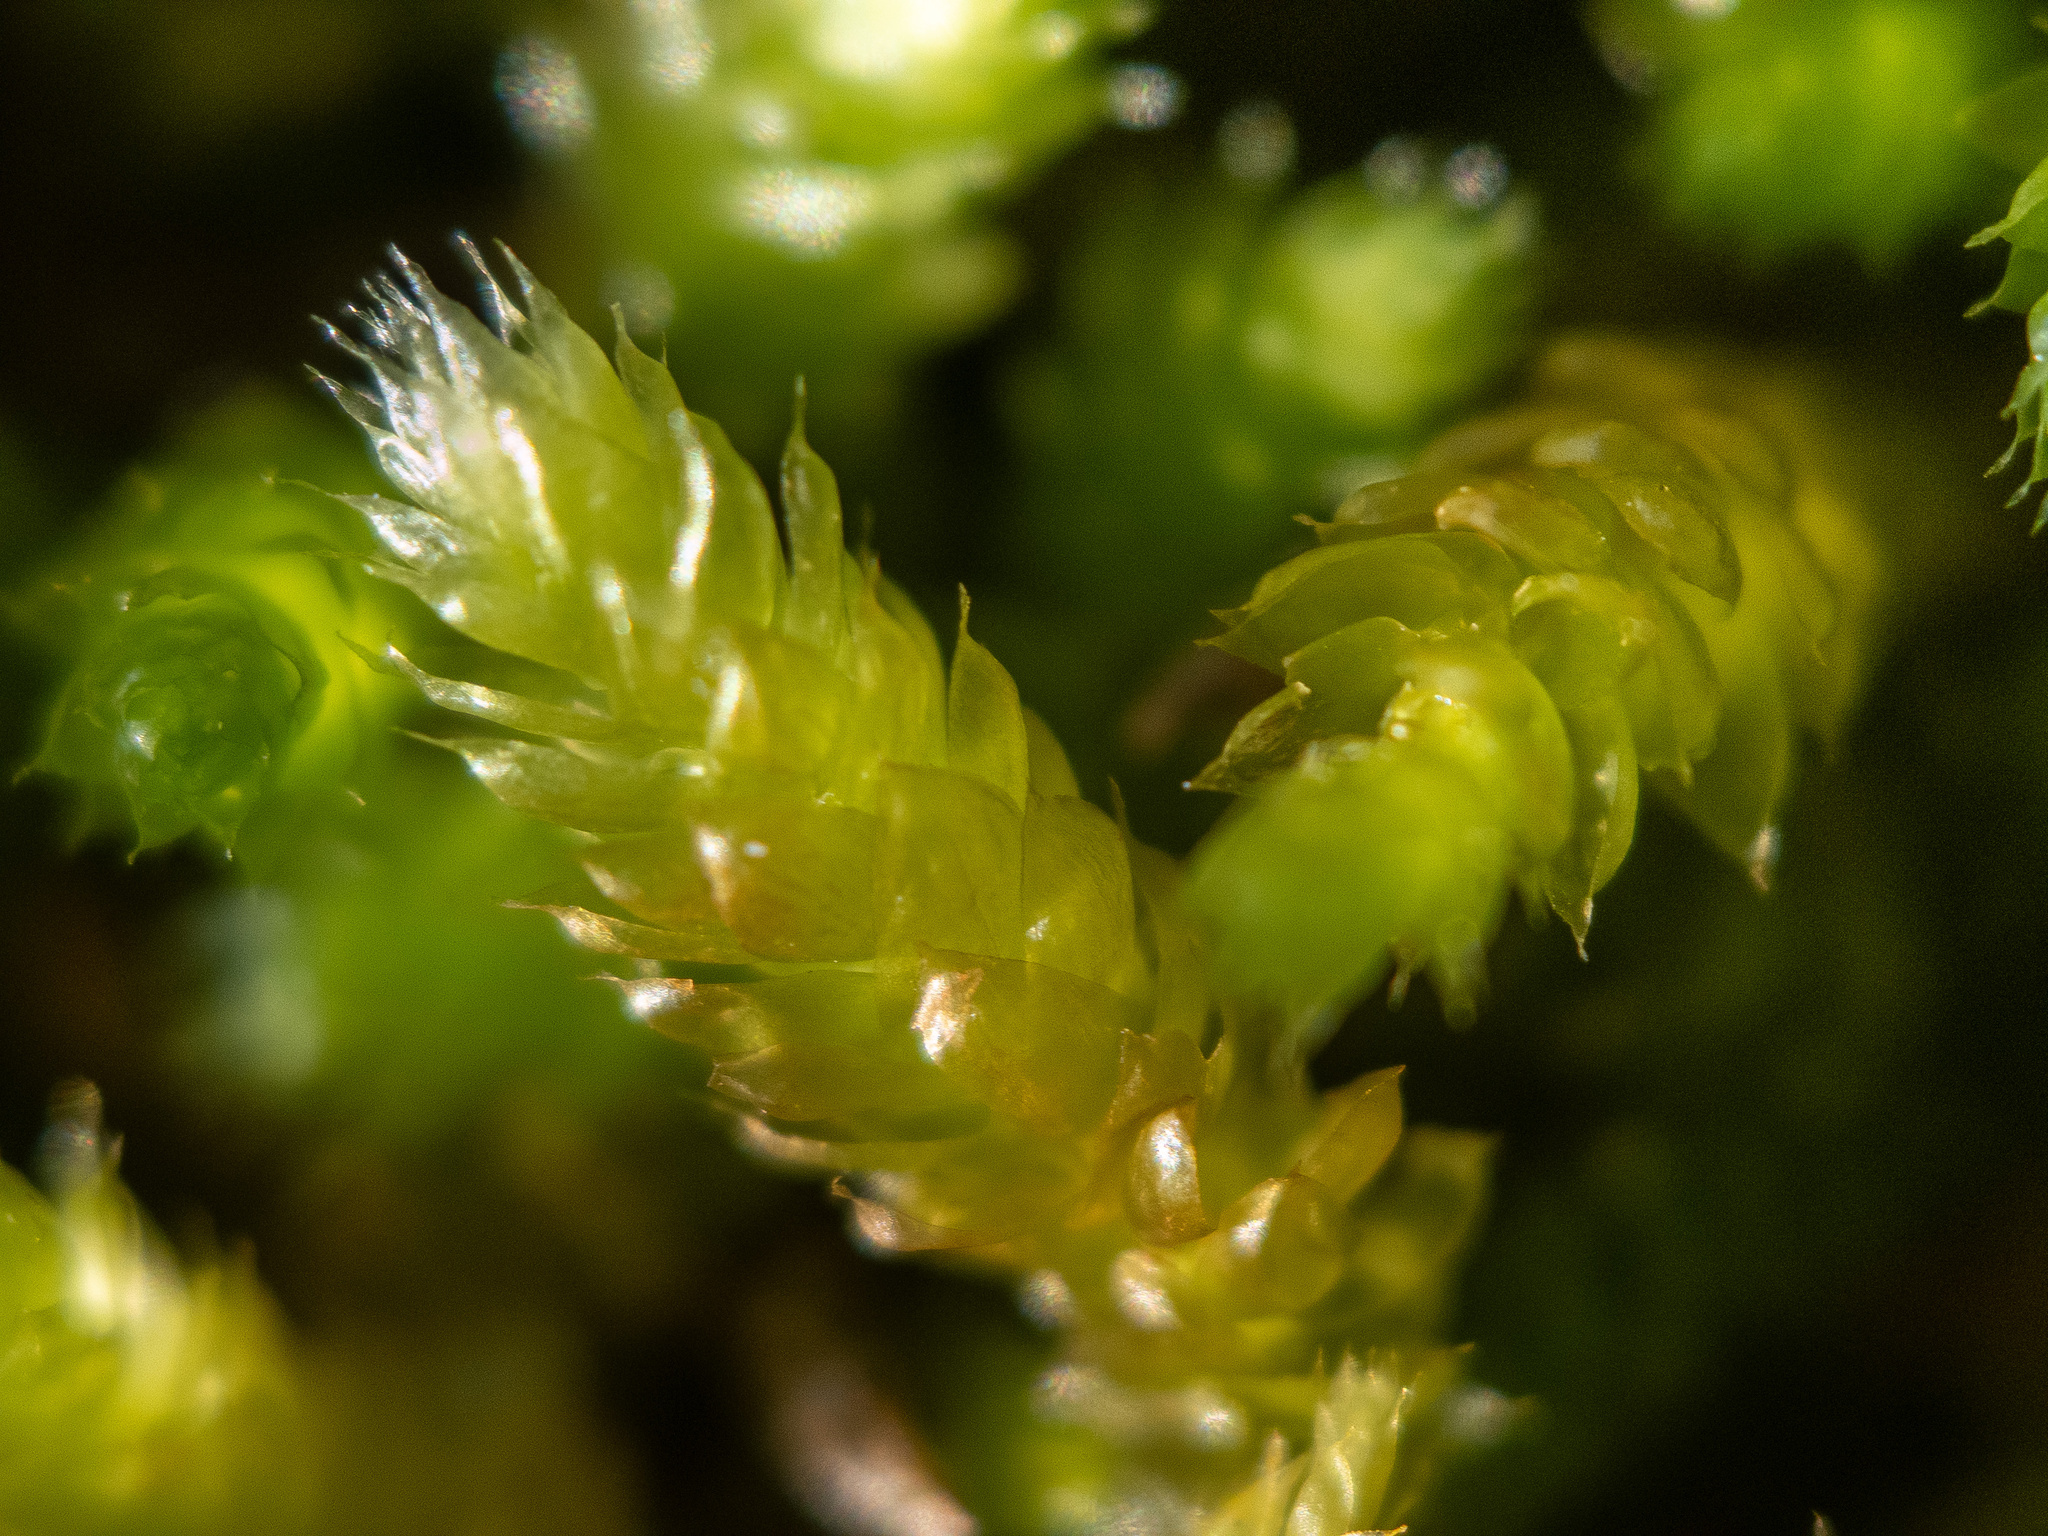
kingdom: Plantae
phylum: Bryophyta
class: Bryopsida
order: Hypnales
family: Brachytheciaceae
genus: Bryoandersonia
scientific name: Bryoandersonia illecebra
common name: Spoon-leaved moss
